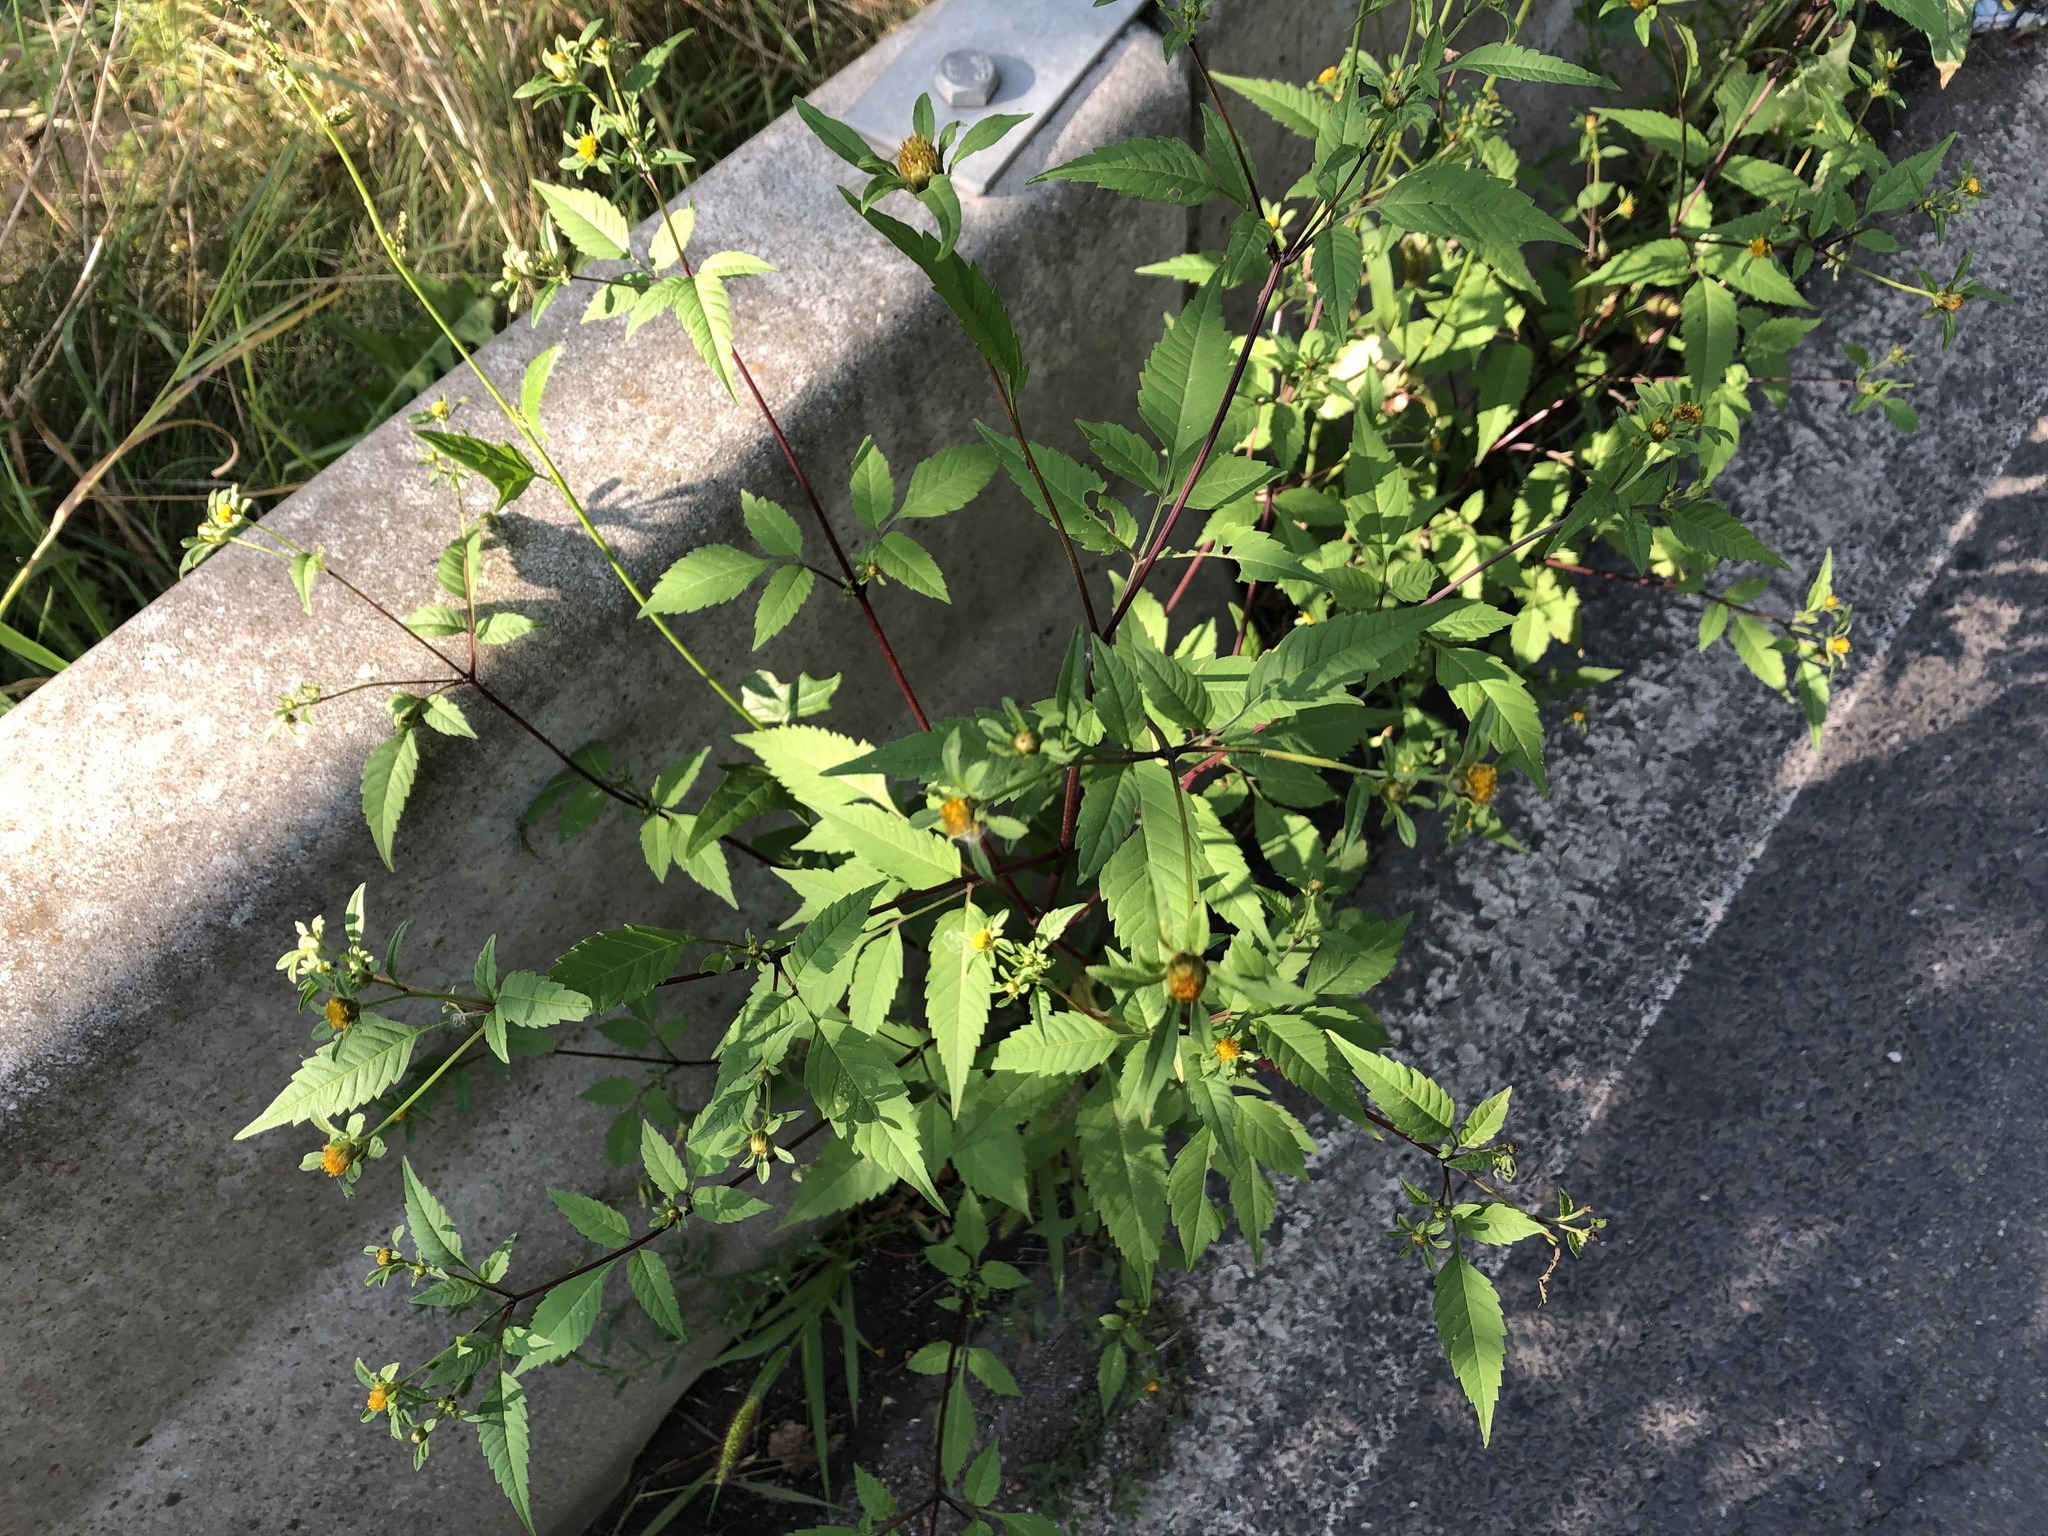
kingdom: Plantae
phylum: Tracheophyta
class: Magnoliopsida
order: Asterales
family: Asteraceae
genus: Bidens
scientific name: Bidens frondosa
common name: Beggarticks
